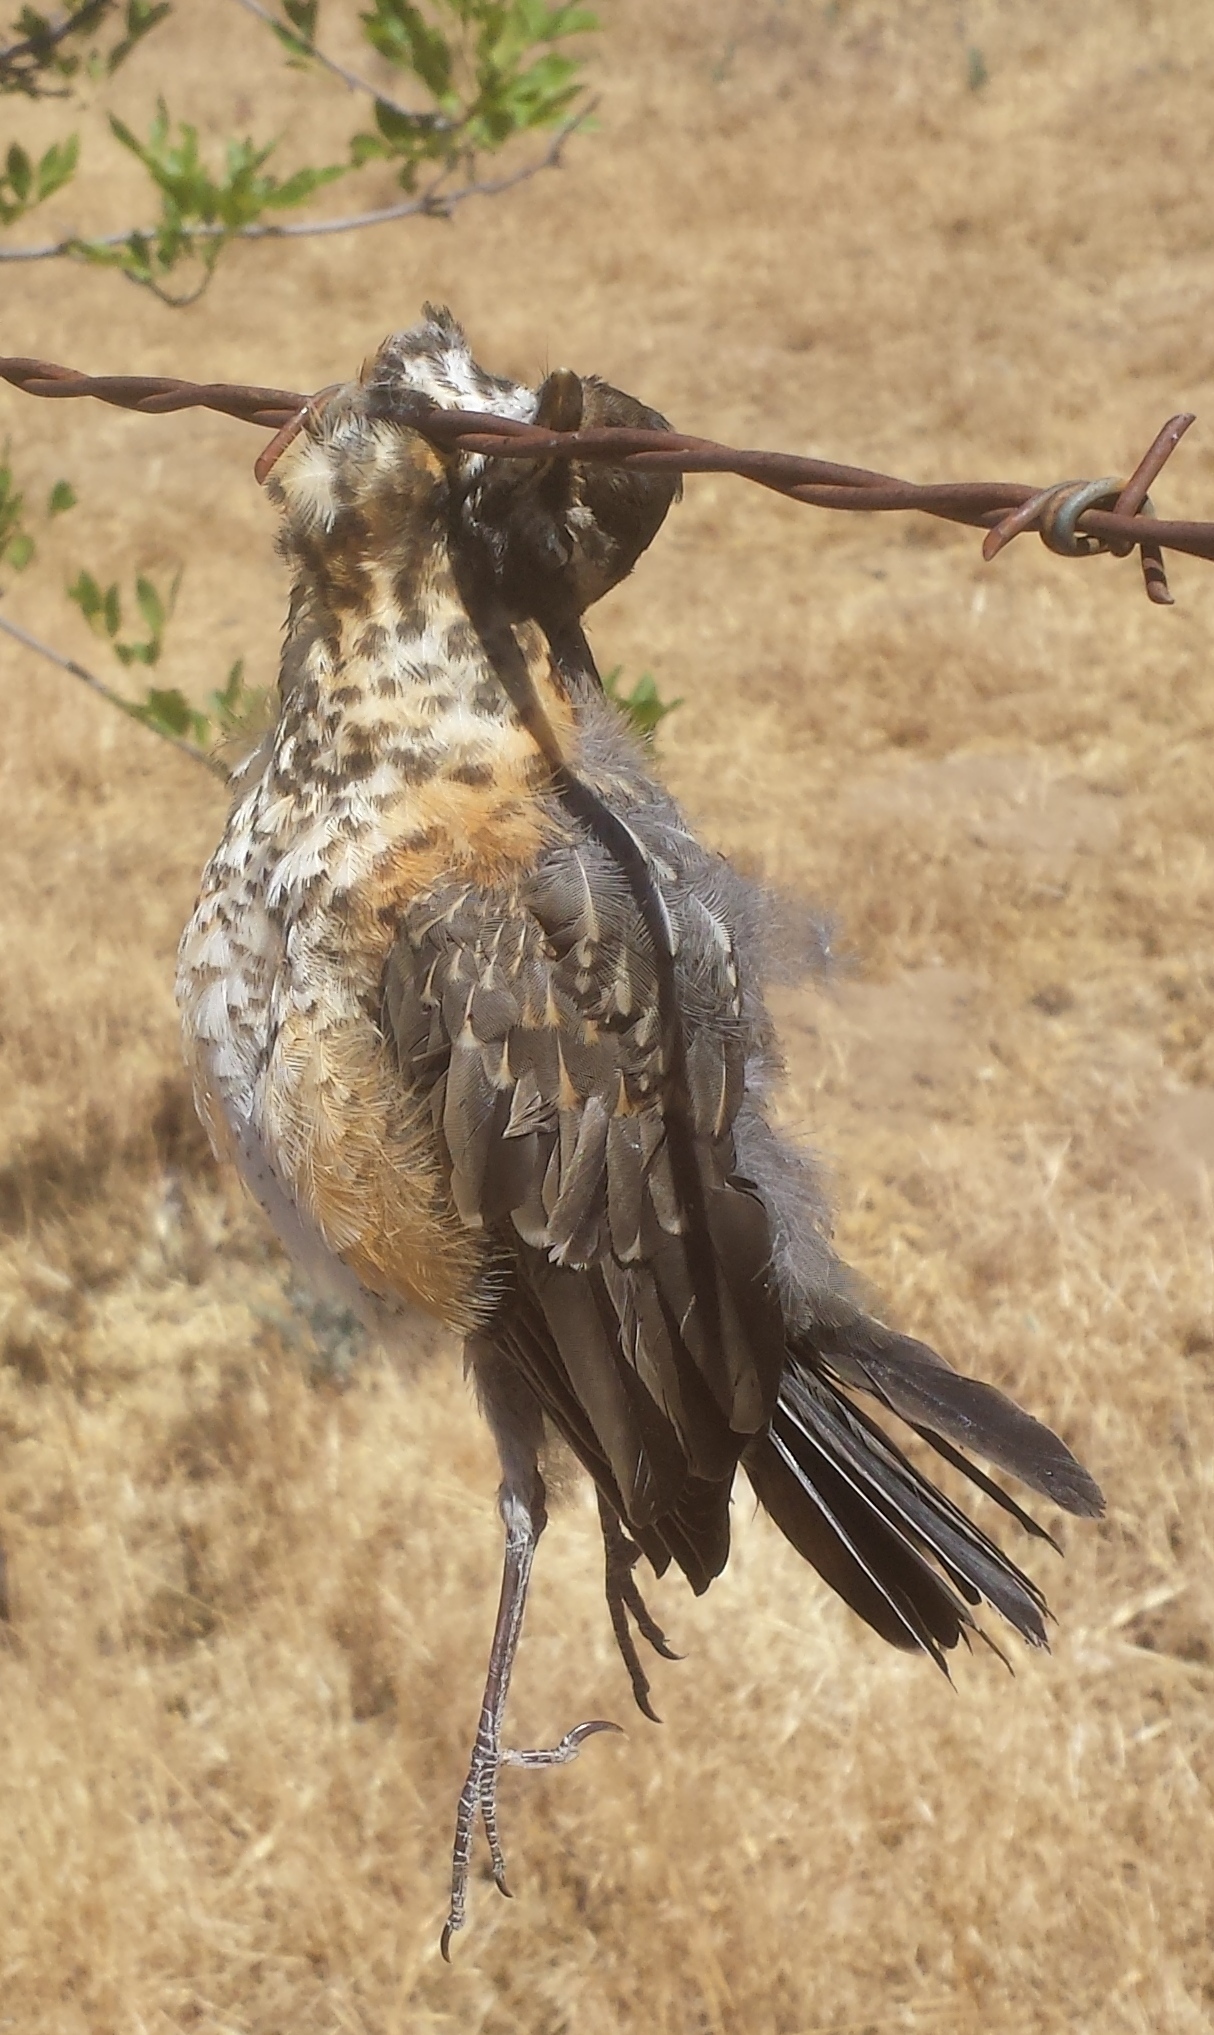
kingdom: Animalia
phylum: Chordata
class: Aves
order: Passeriformes
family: Turdidae
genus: Turdus
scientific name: Turdus migratorius
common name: American robin
